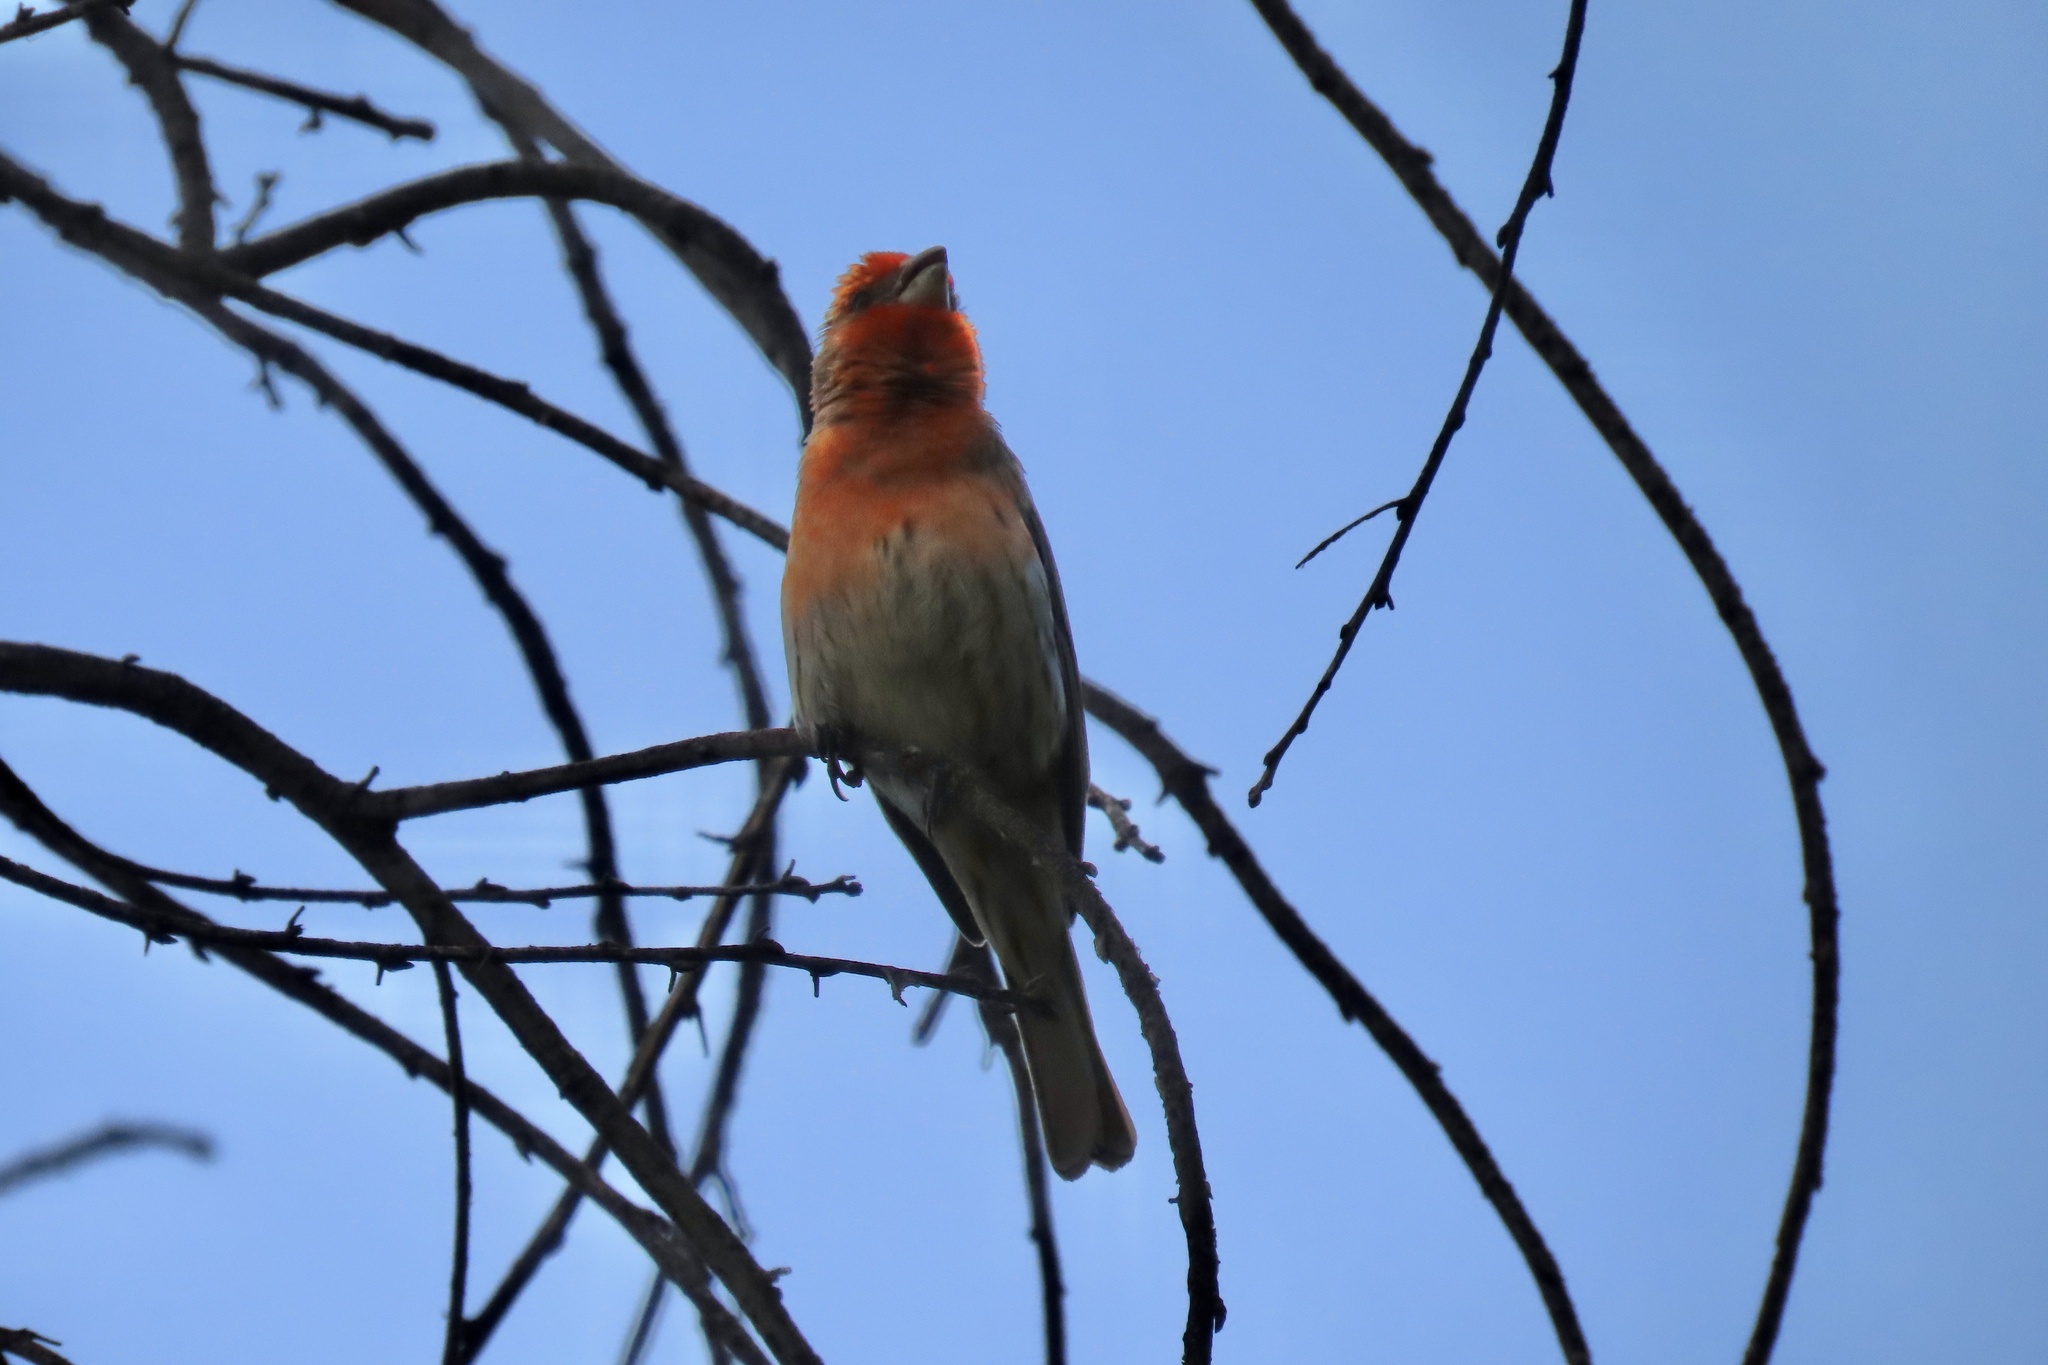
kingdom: Animalia
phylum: Chordata
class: Aves
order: Passeriformes
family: Fringillidae
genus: Haemorhous
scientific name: Haemorhous mexicanus
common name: House finch
